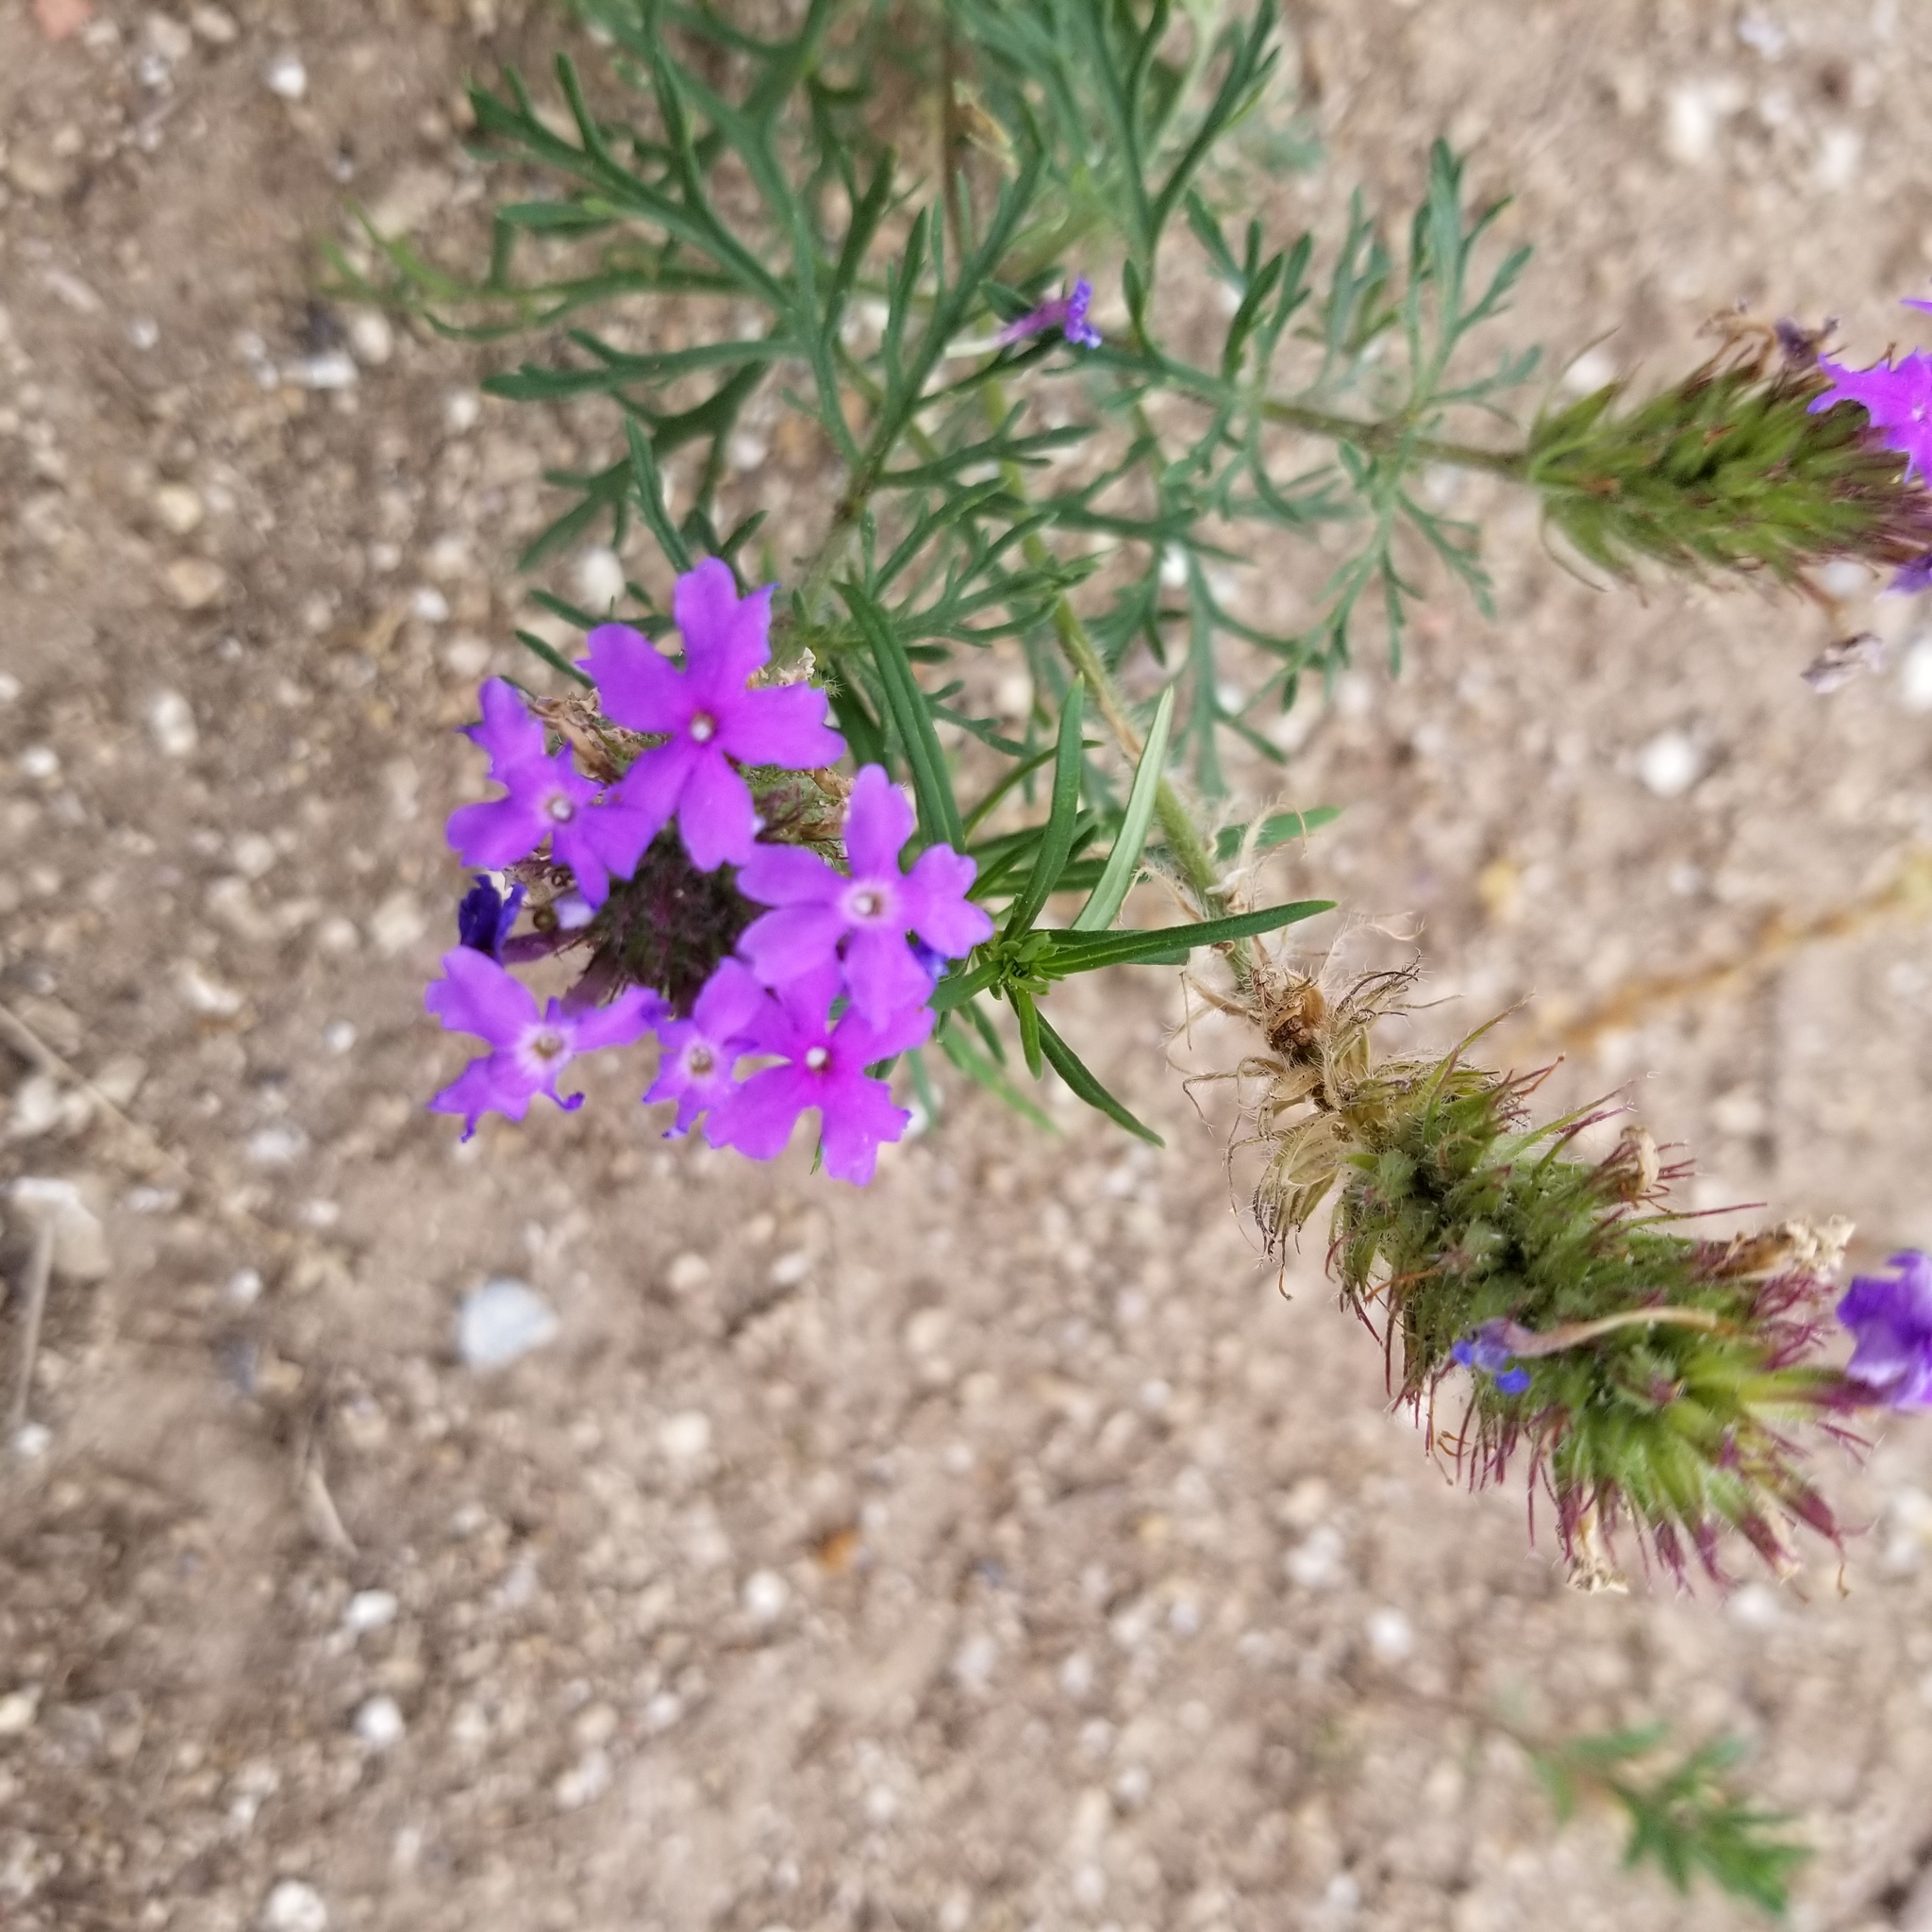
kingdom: Plantae
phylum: Tracheophyta
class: Magnoliopsida
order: Lamiales
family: Verbenaceae
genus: Verbena
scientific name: Verbena bipinnatifida
